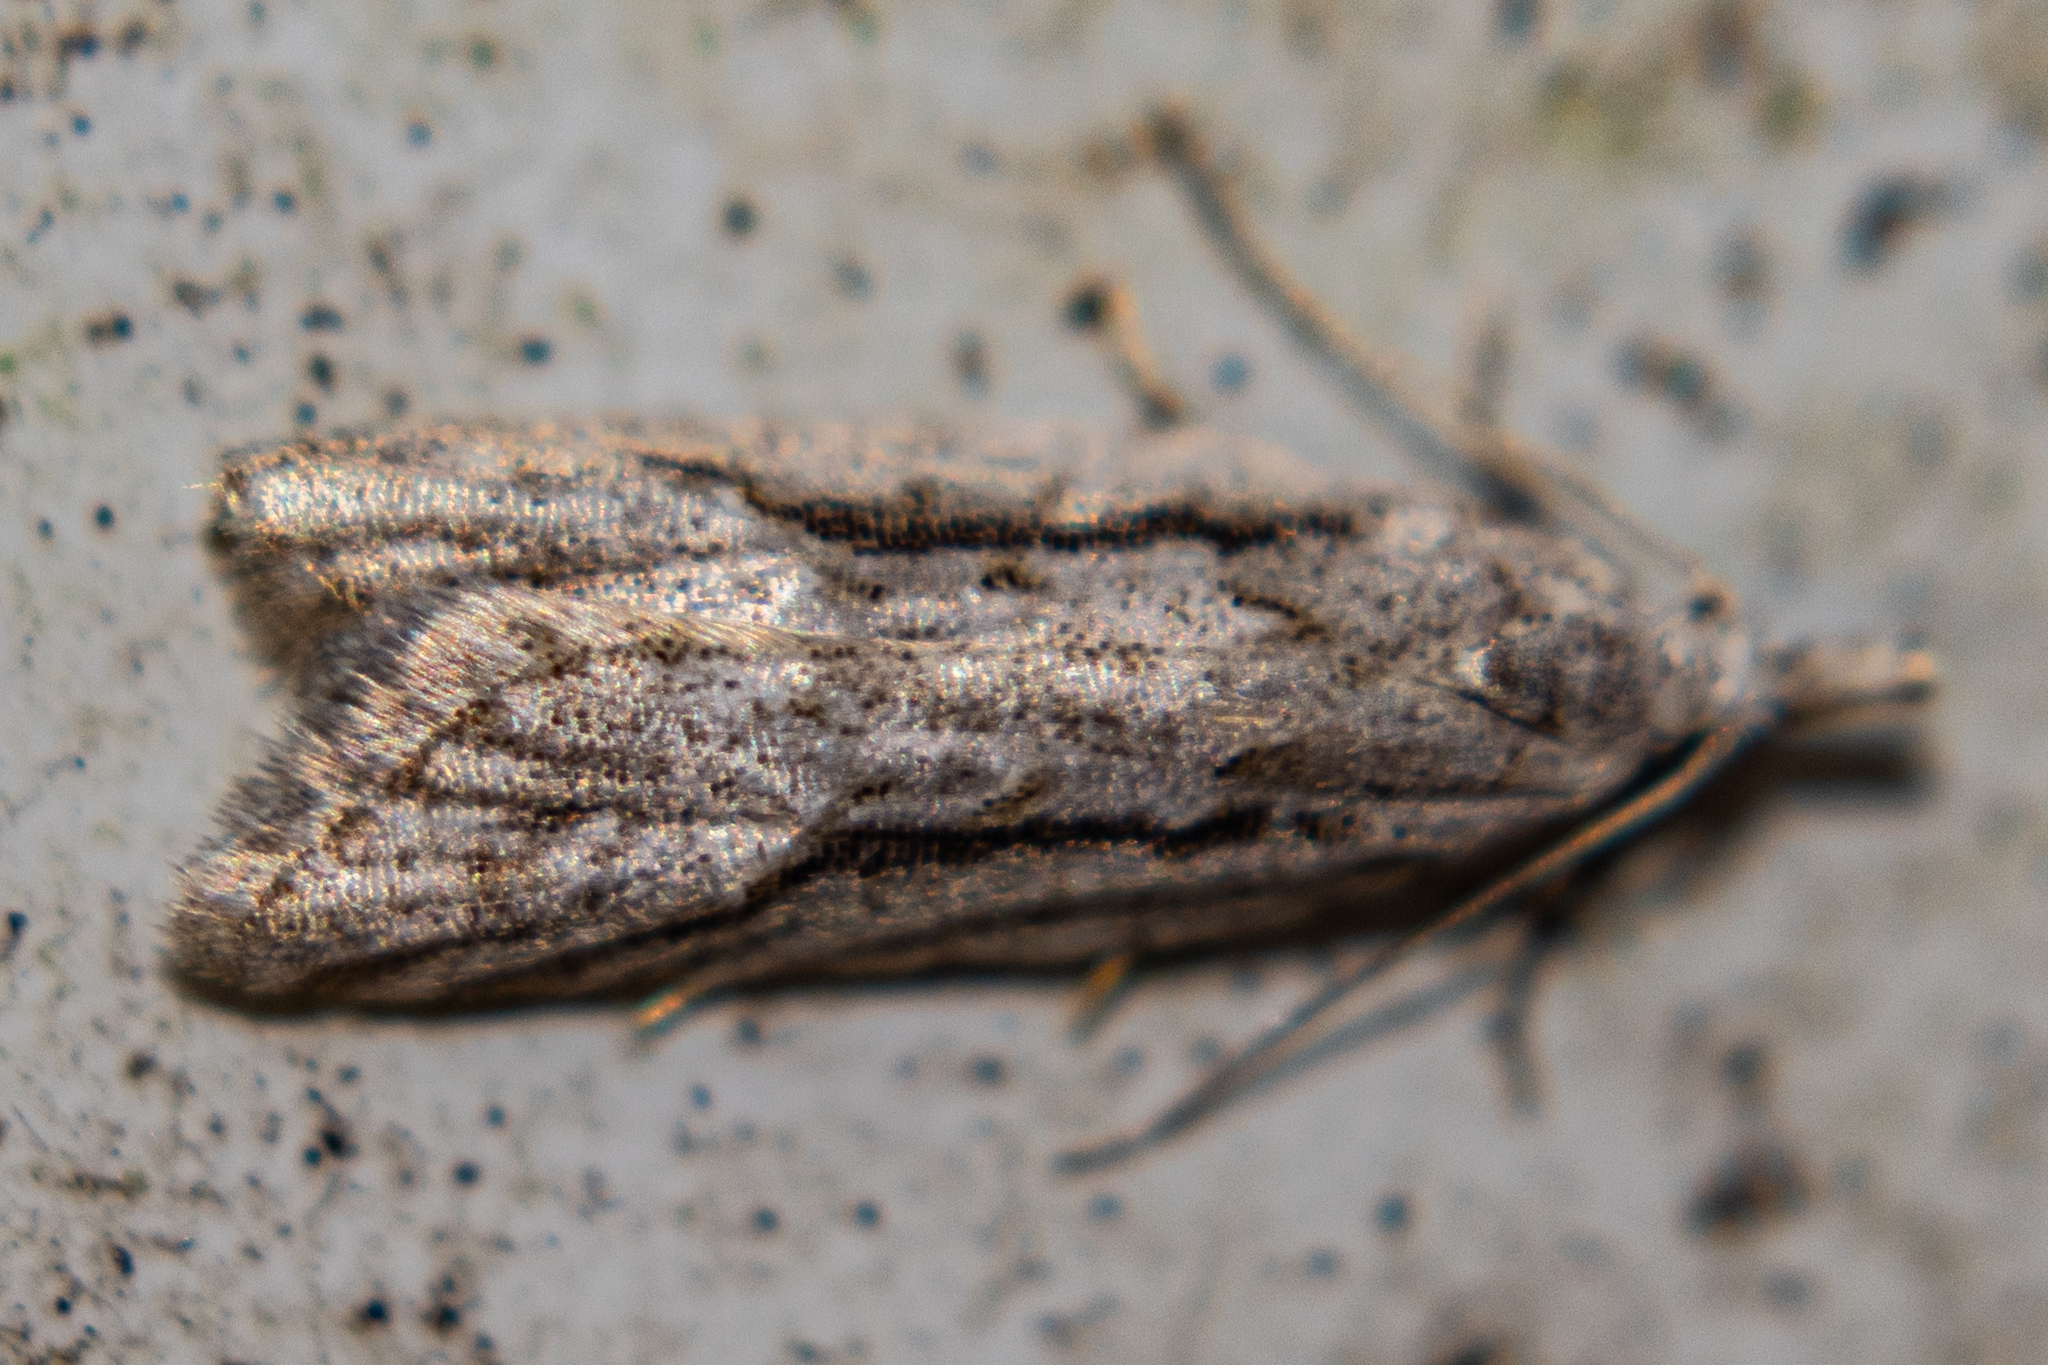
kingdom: Animalia
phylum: Arthropoda
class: Insecta
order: Lepidoptera
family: Carposinidae
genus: Carposina
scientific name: Carposina
